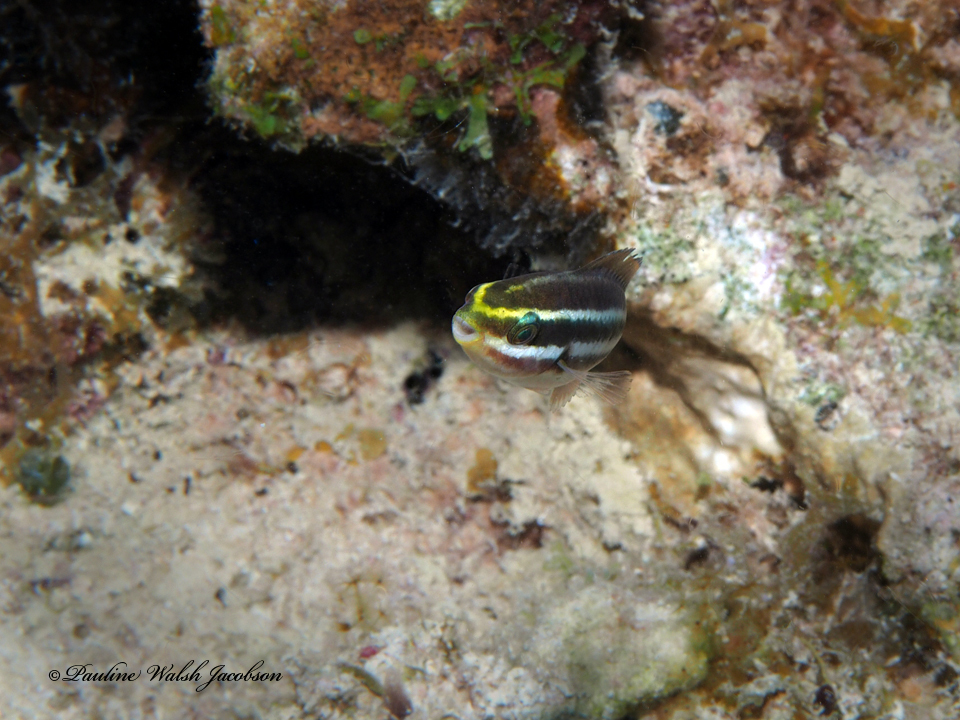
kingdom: Animalia
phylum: Chordata
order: Perciformes
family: Scaridae
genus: Scarus
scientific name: Scarus iseri
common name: Striped parrotfish
